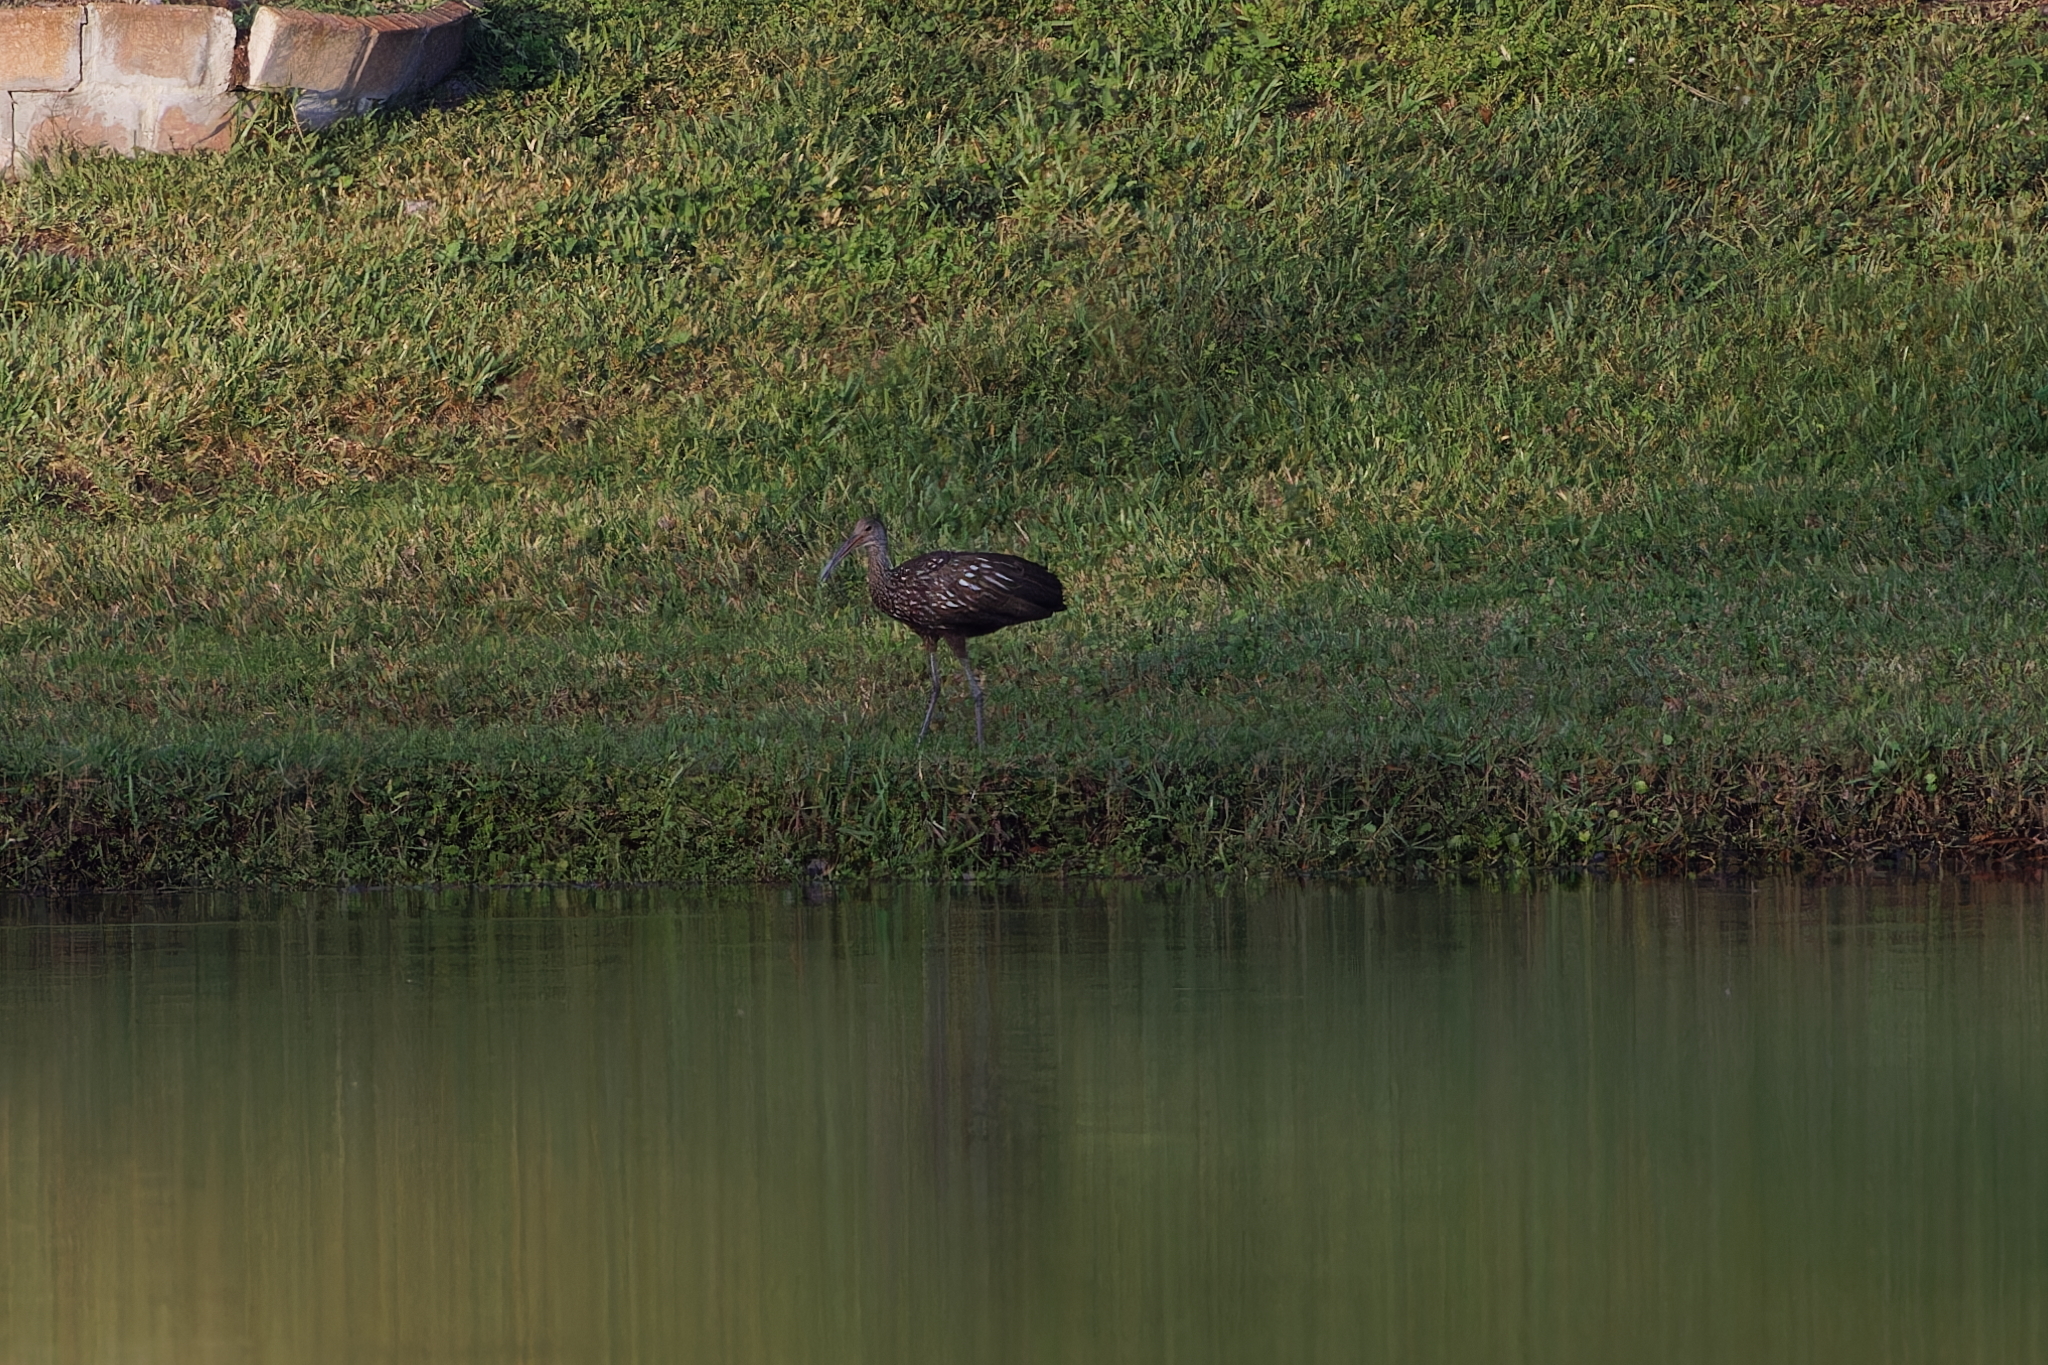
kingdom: Animalia
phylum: Chordata
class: Aves
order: Gruiformes
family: Aramidae
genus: Aramus
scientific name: Aramus guarauna
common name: Limpkin
